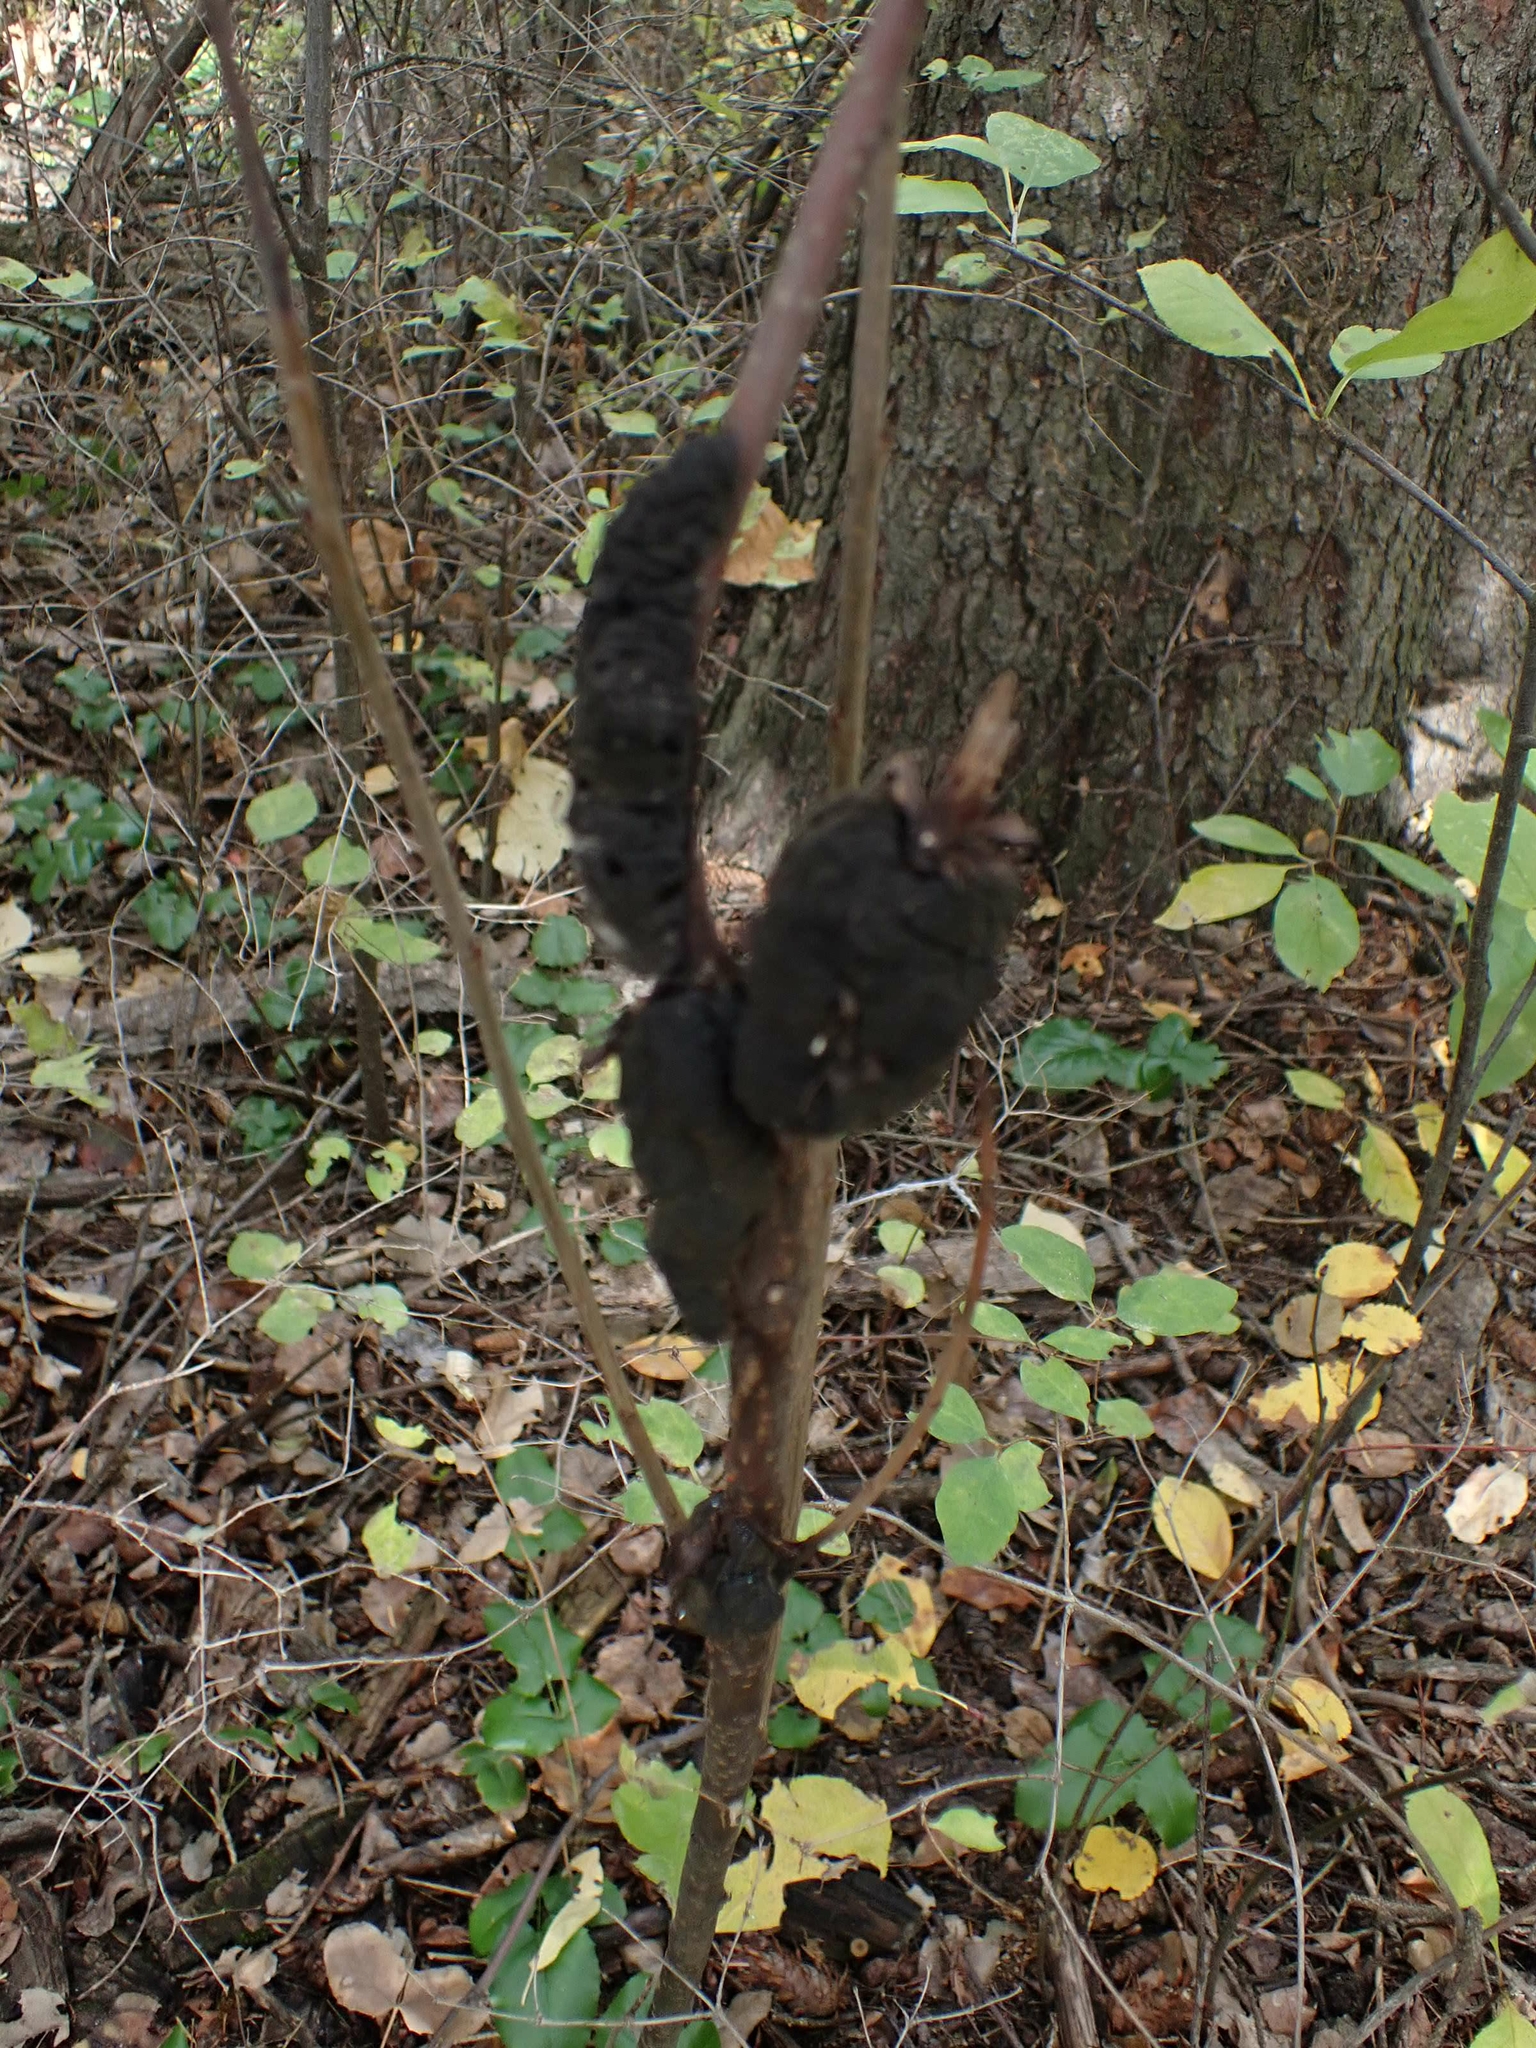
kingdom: Fungi
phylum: Ascomycota
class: Dothideomycetes
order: Venturiales
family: Venturiaceae
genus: Apiosporina
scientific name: Apiosporina morbosa
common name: Black knot
